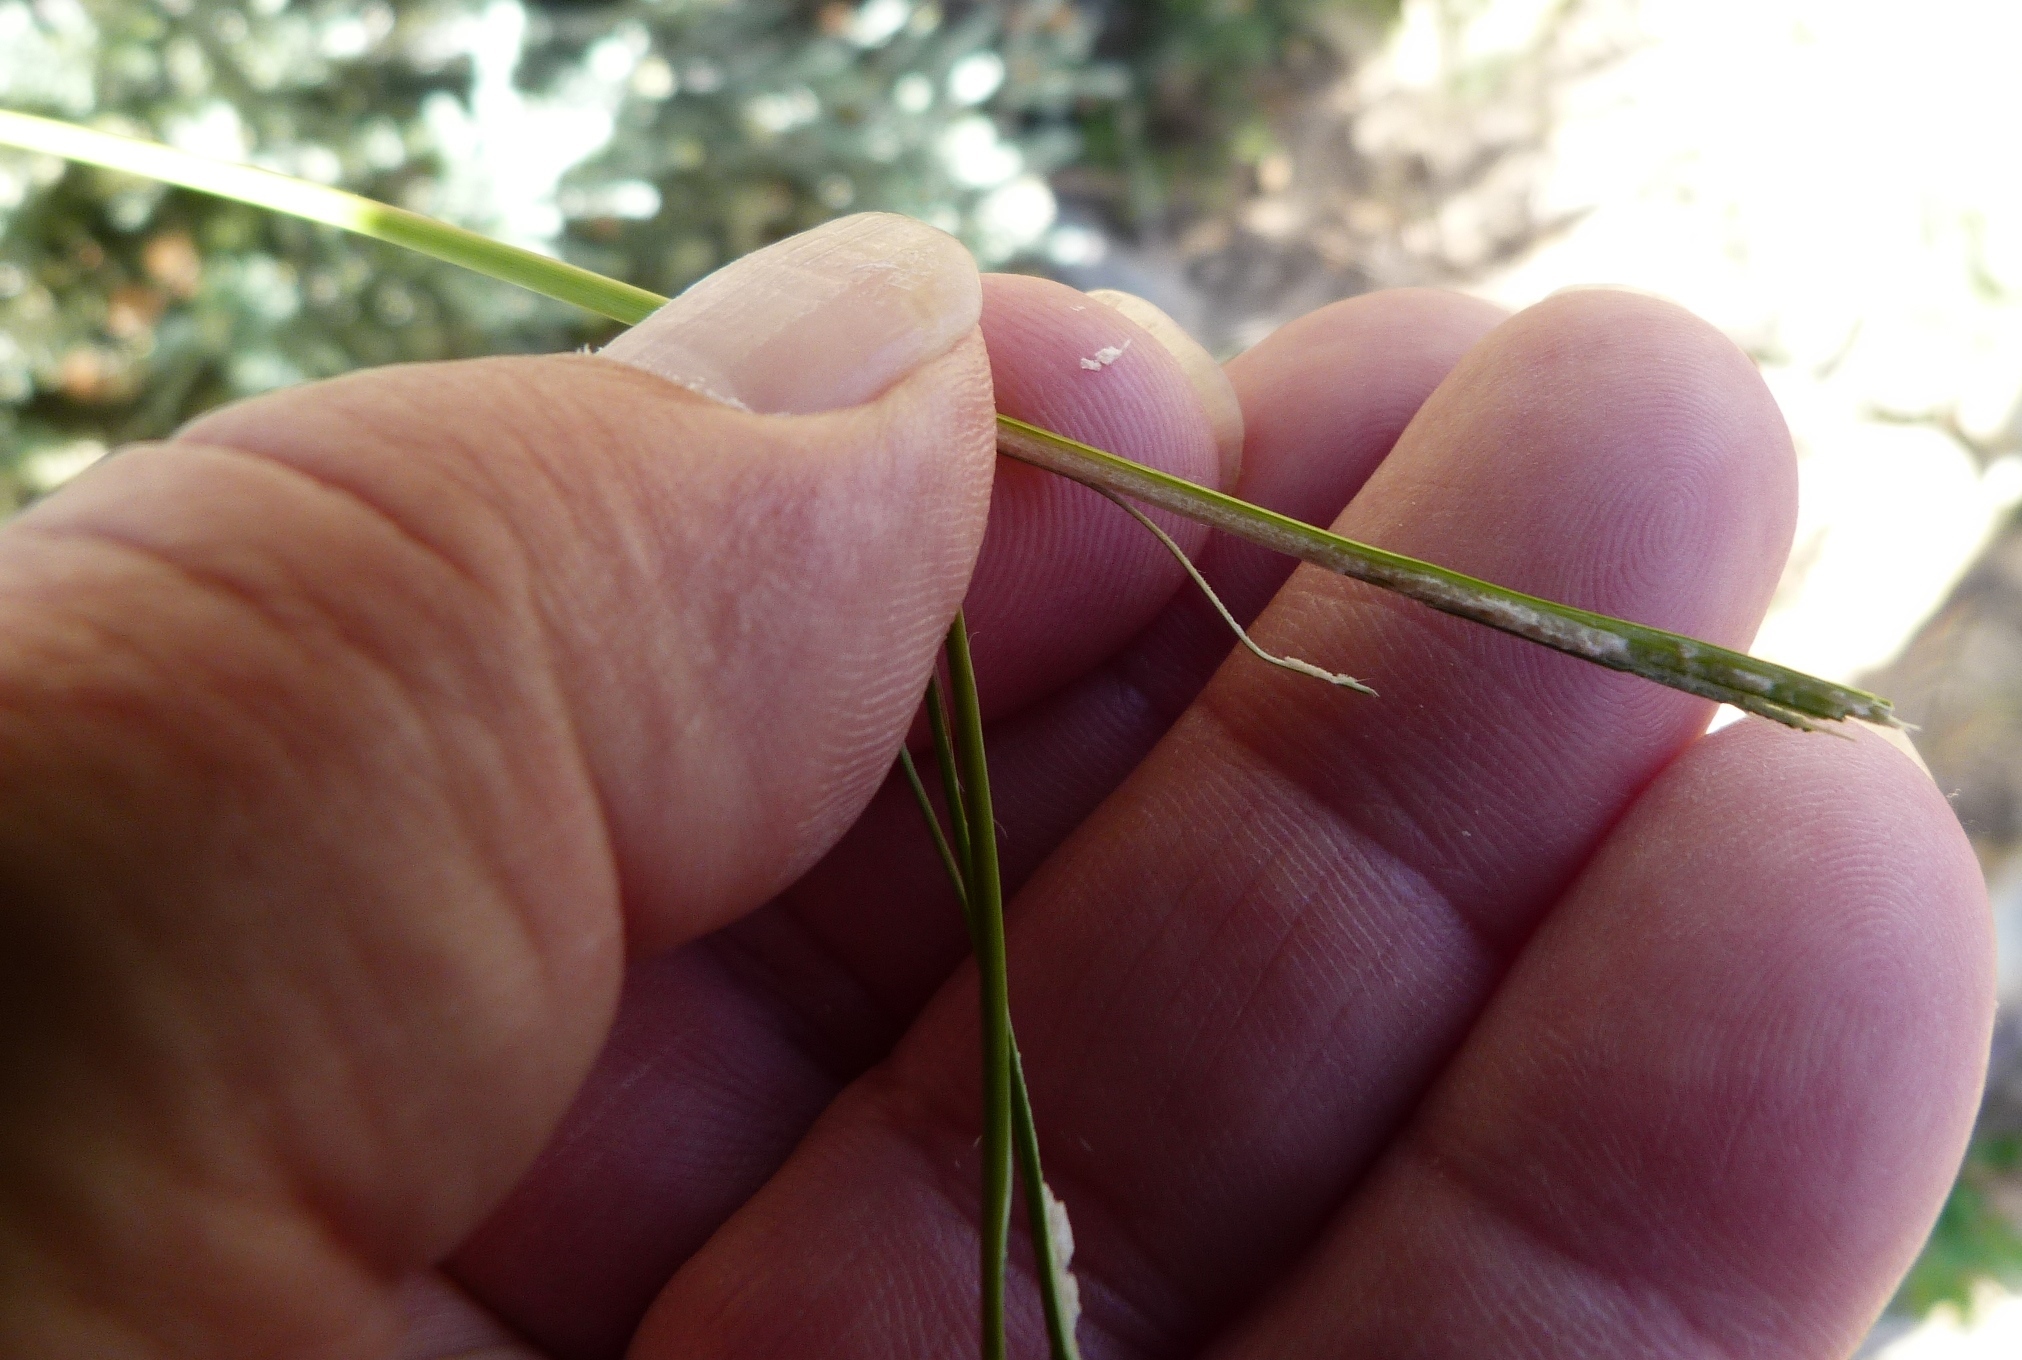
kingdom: Plantae
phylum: Tracheophyta
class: Liliopsida
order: Poales
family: Juncaceae
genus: Juncus
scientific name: Juncus edgariae
